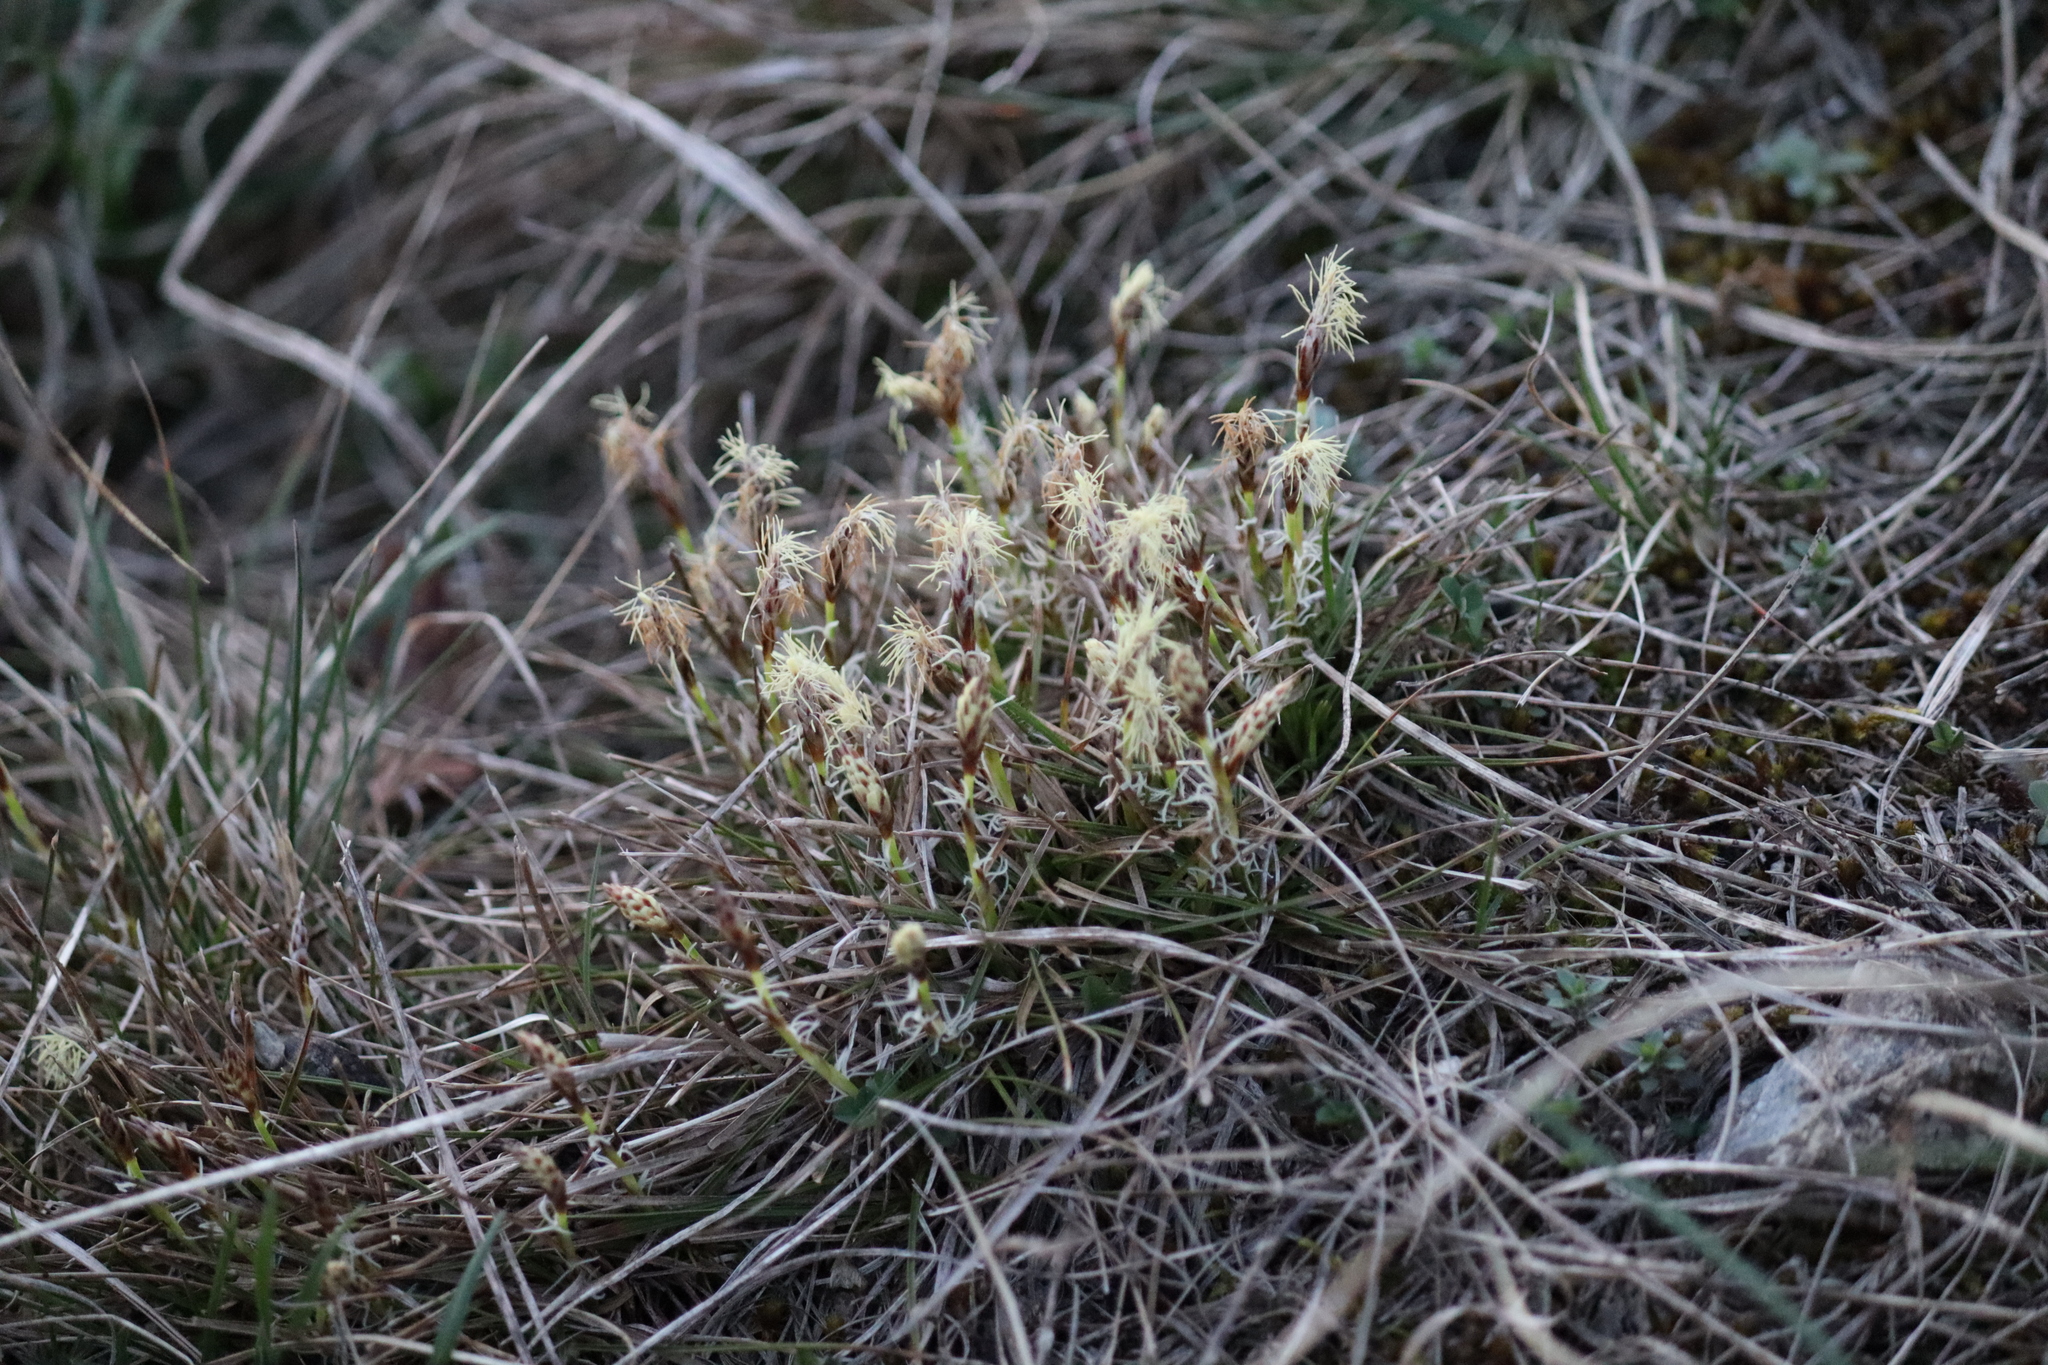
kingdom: Plantae
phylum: Tracheophyta
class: Liliopsida
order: Poales
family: Cyperaceae
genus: Carex
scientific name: Carex humilis
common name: Dwarf sedge
